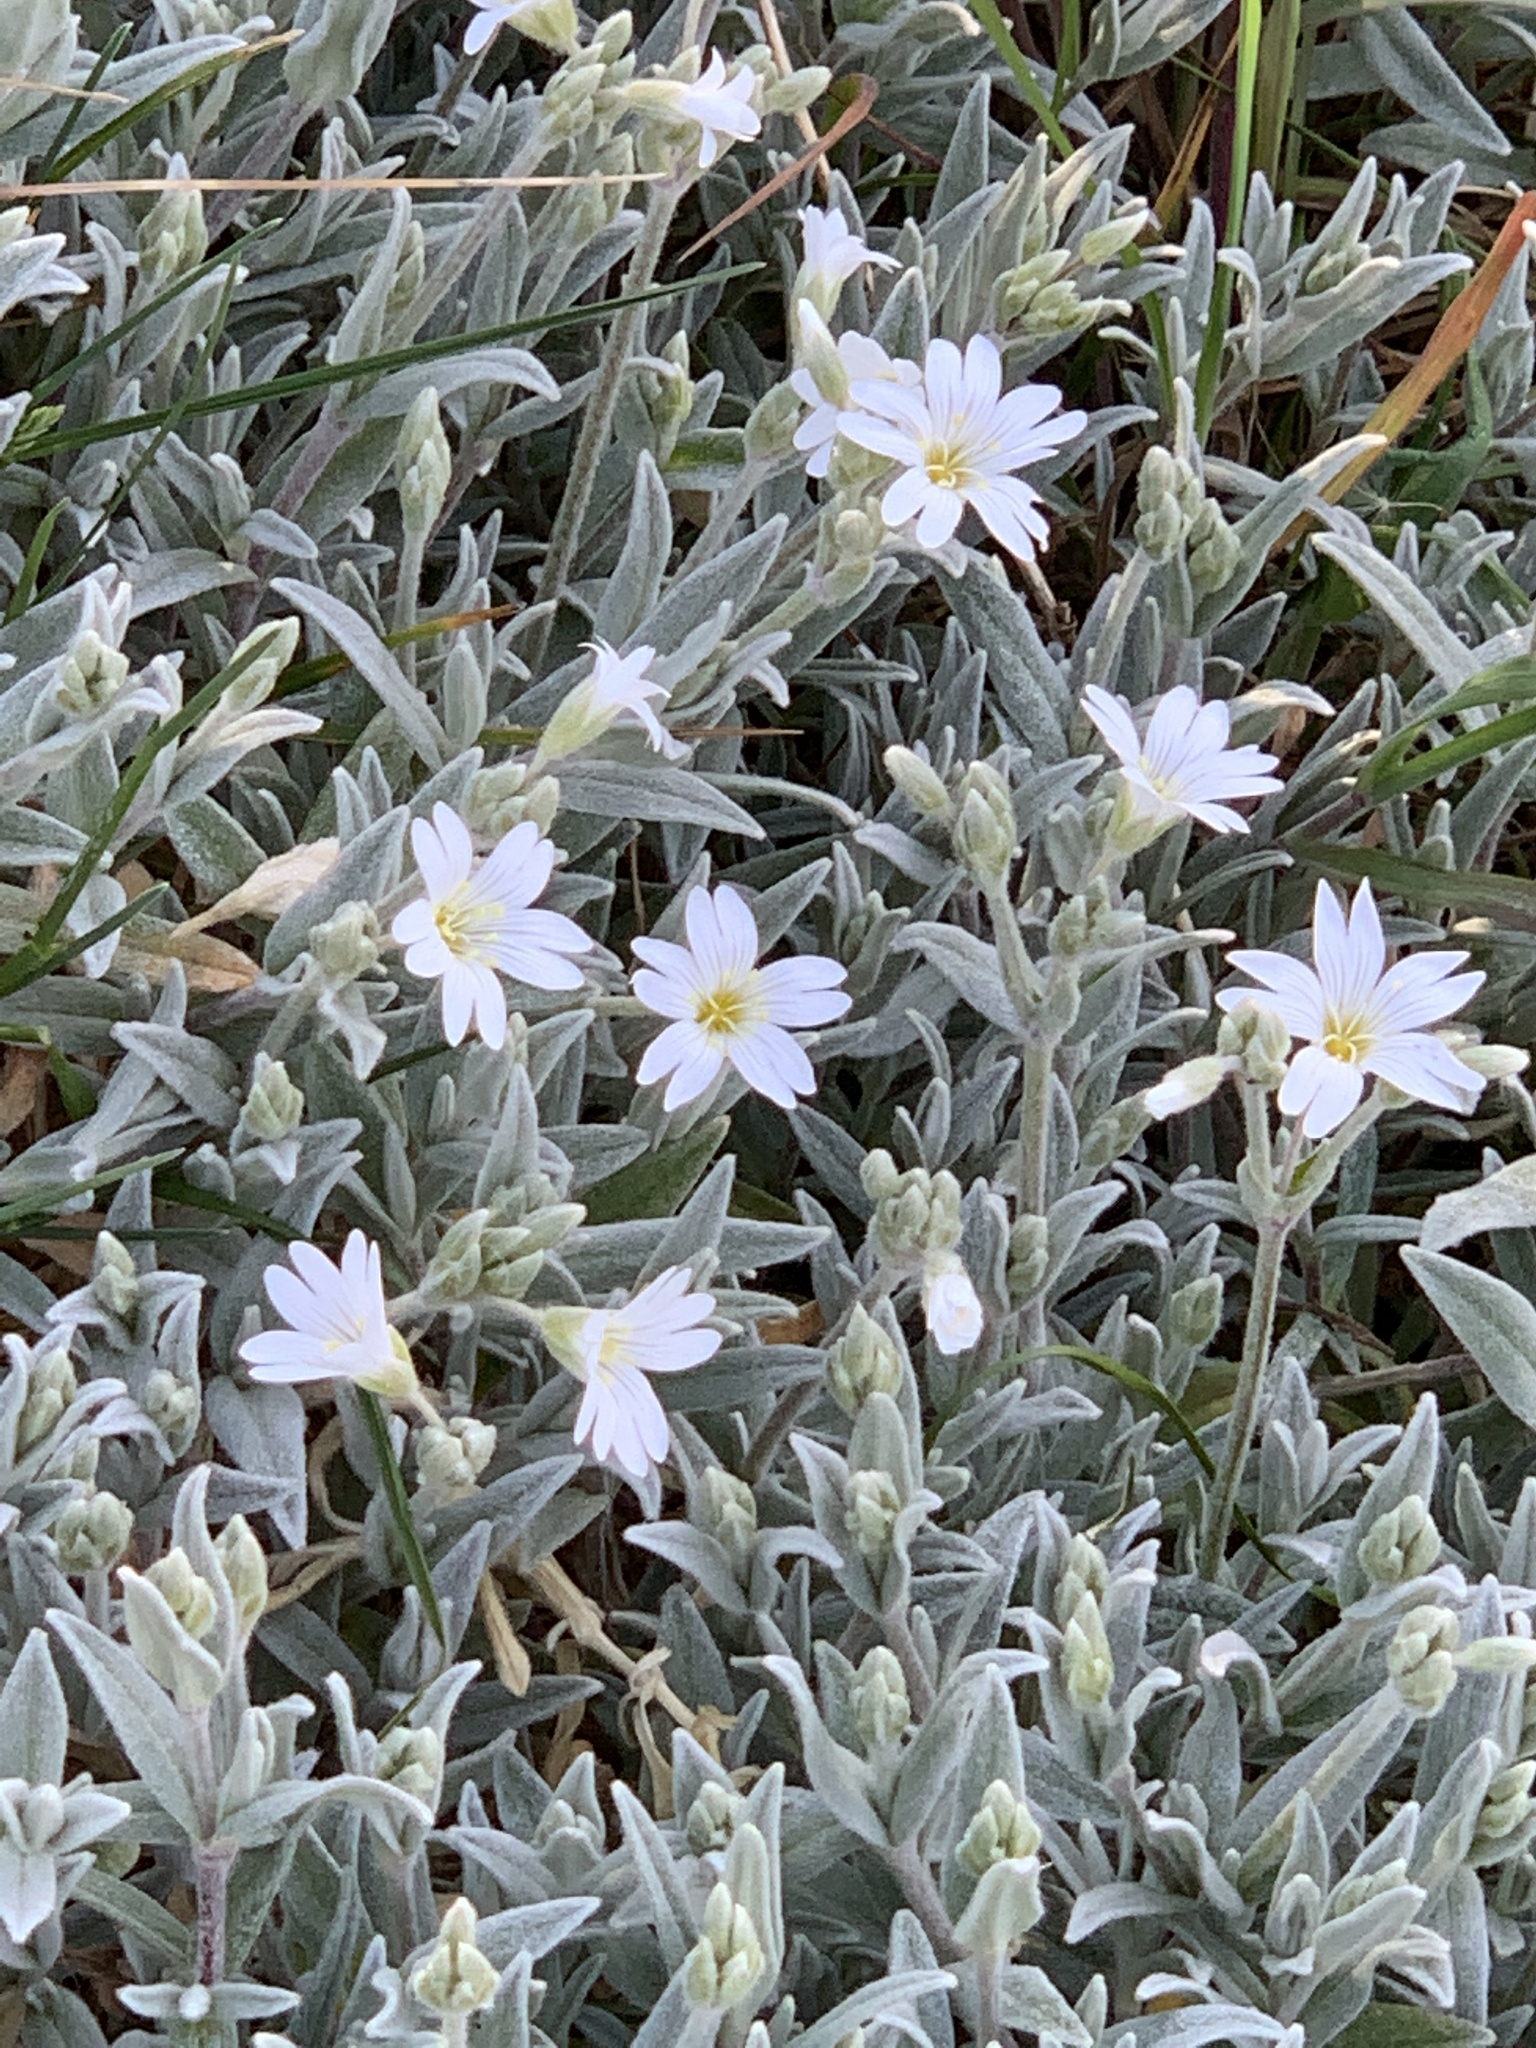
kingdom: Plantae
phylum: Tracheophyta
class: Magnoliopsida
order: Caryophyllales
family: Caryophyllaceae
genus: Cerastium
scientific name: Cerastium tomentosum
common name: Snow-in-summer
